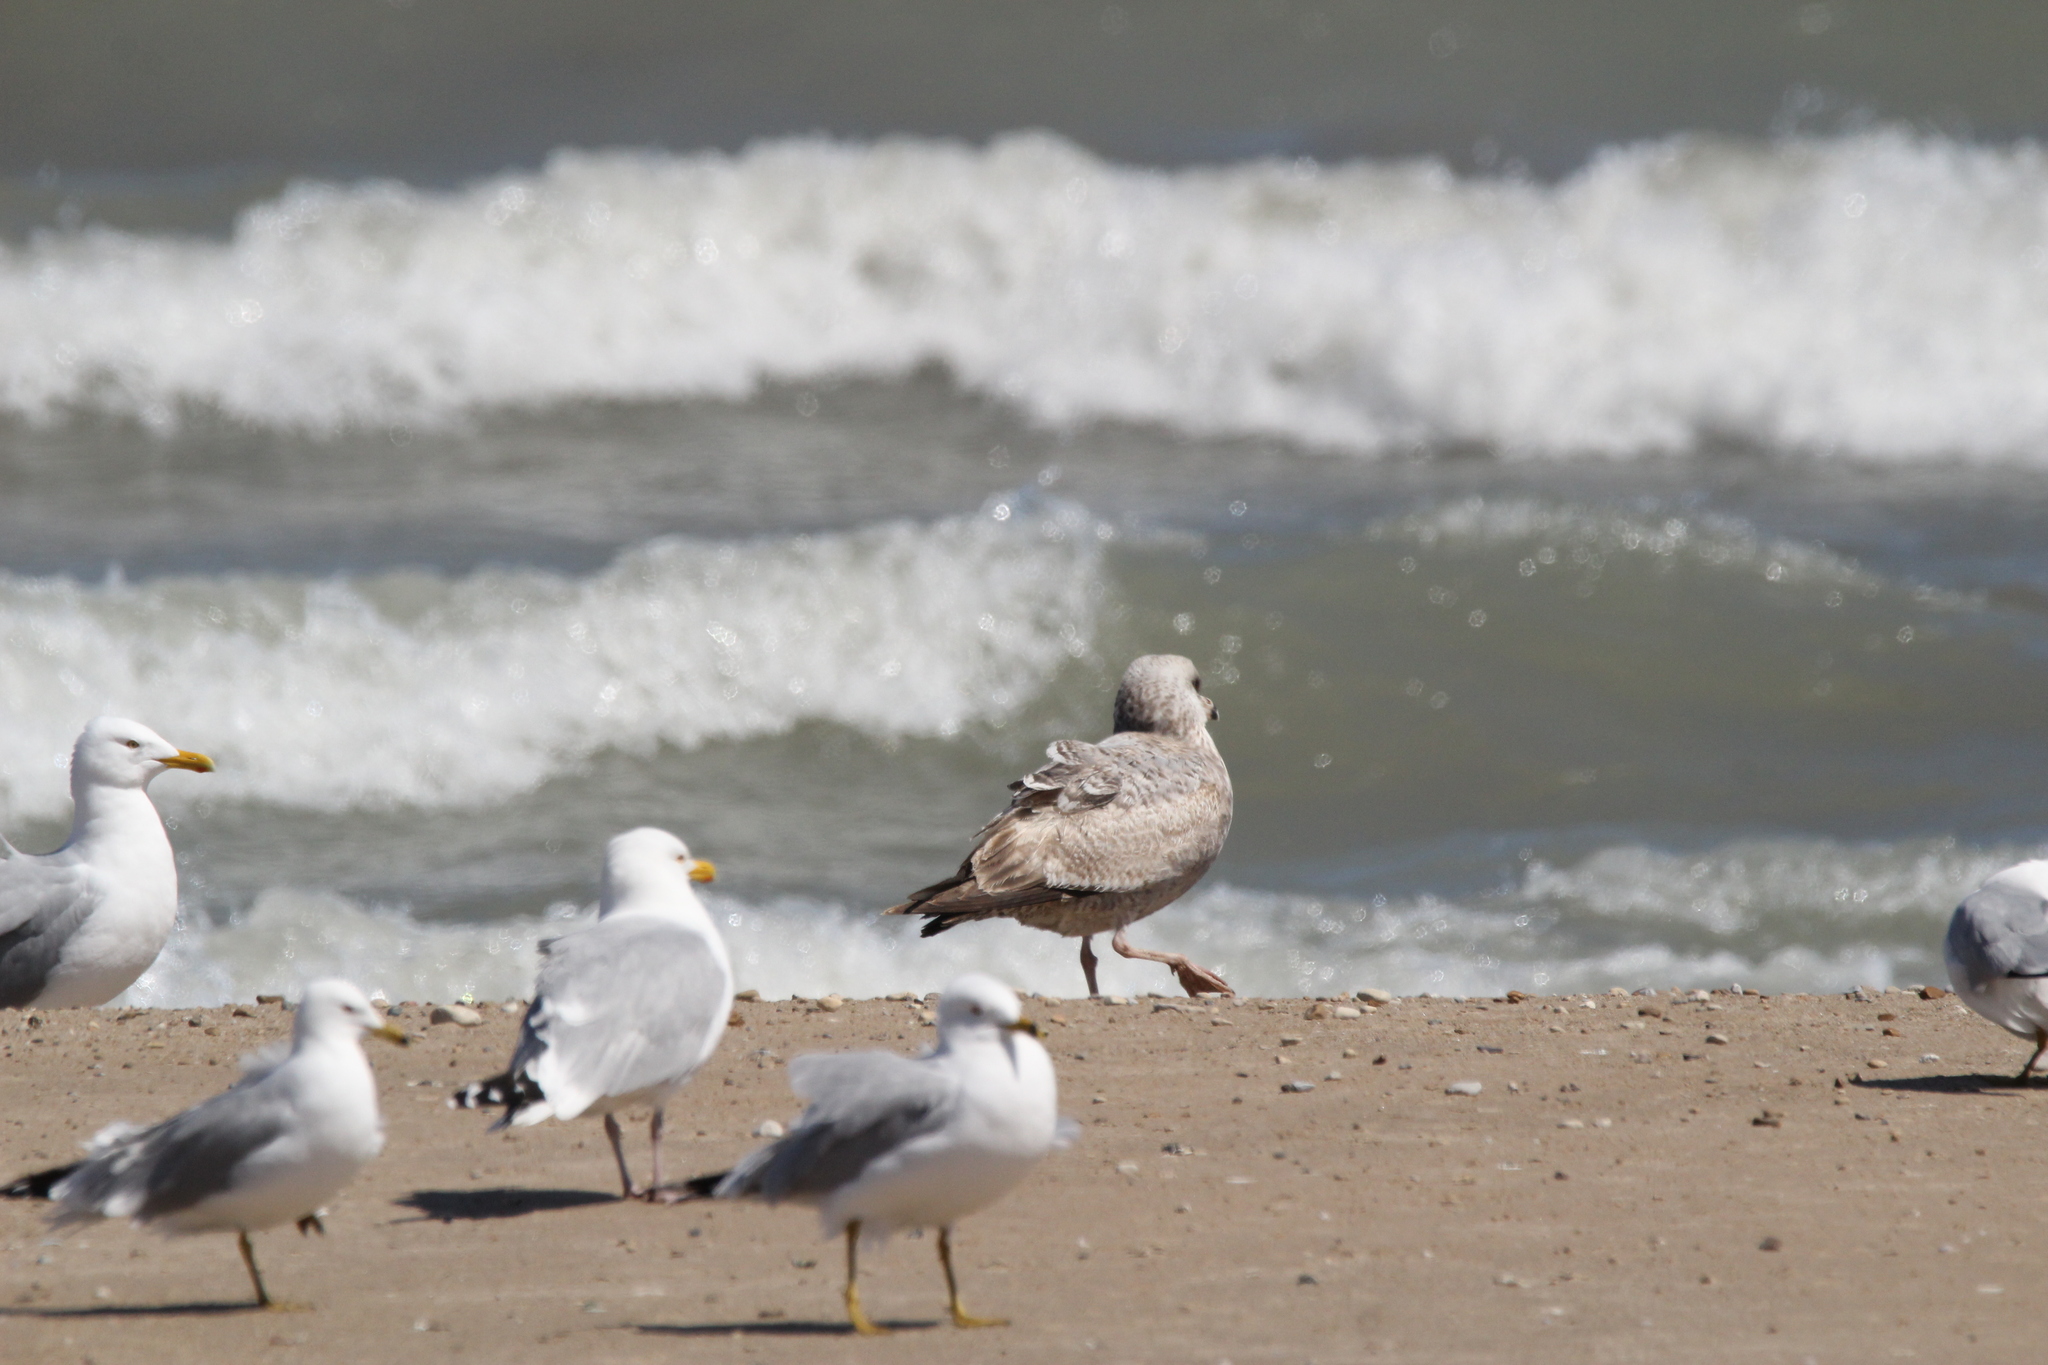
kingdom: Animalia
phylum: Chordata
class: Aves
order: Charadriiformes
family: Laridae
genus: Larus
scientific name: Larus smithsonianus
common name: American herring gull
